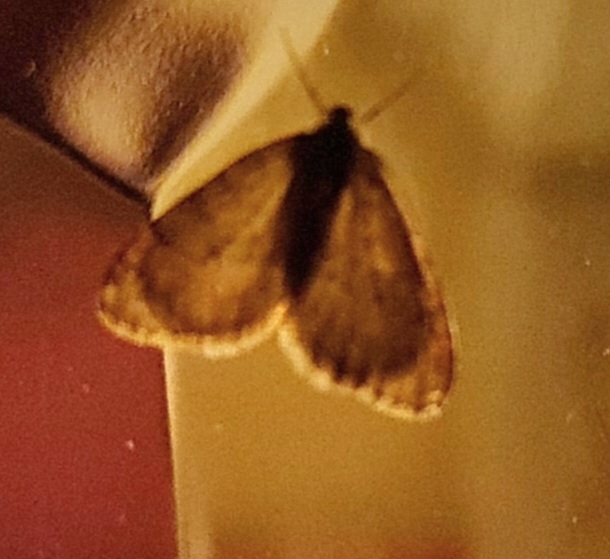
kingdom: Animalia
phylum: Arthropoda
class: Insecta
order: Lepidoptera
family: Geometridae
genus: Operophtera
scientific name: Operophtera brumata
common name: Winter moth
